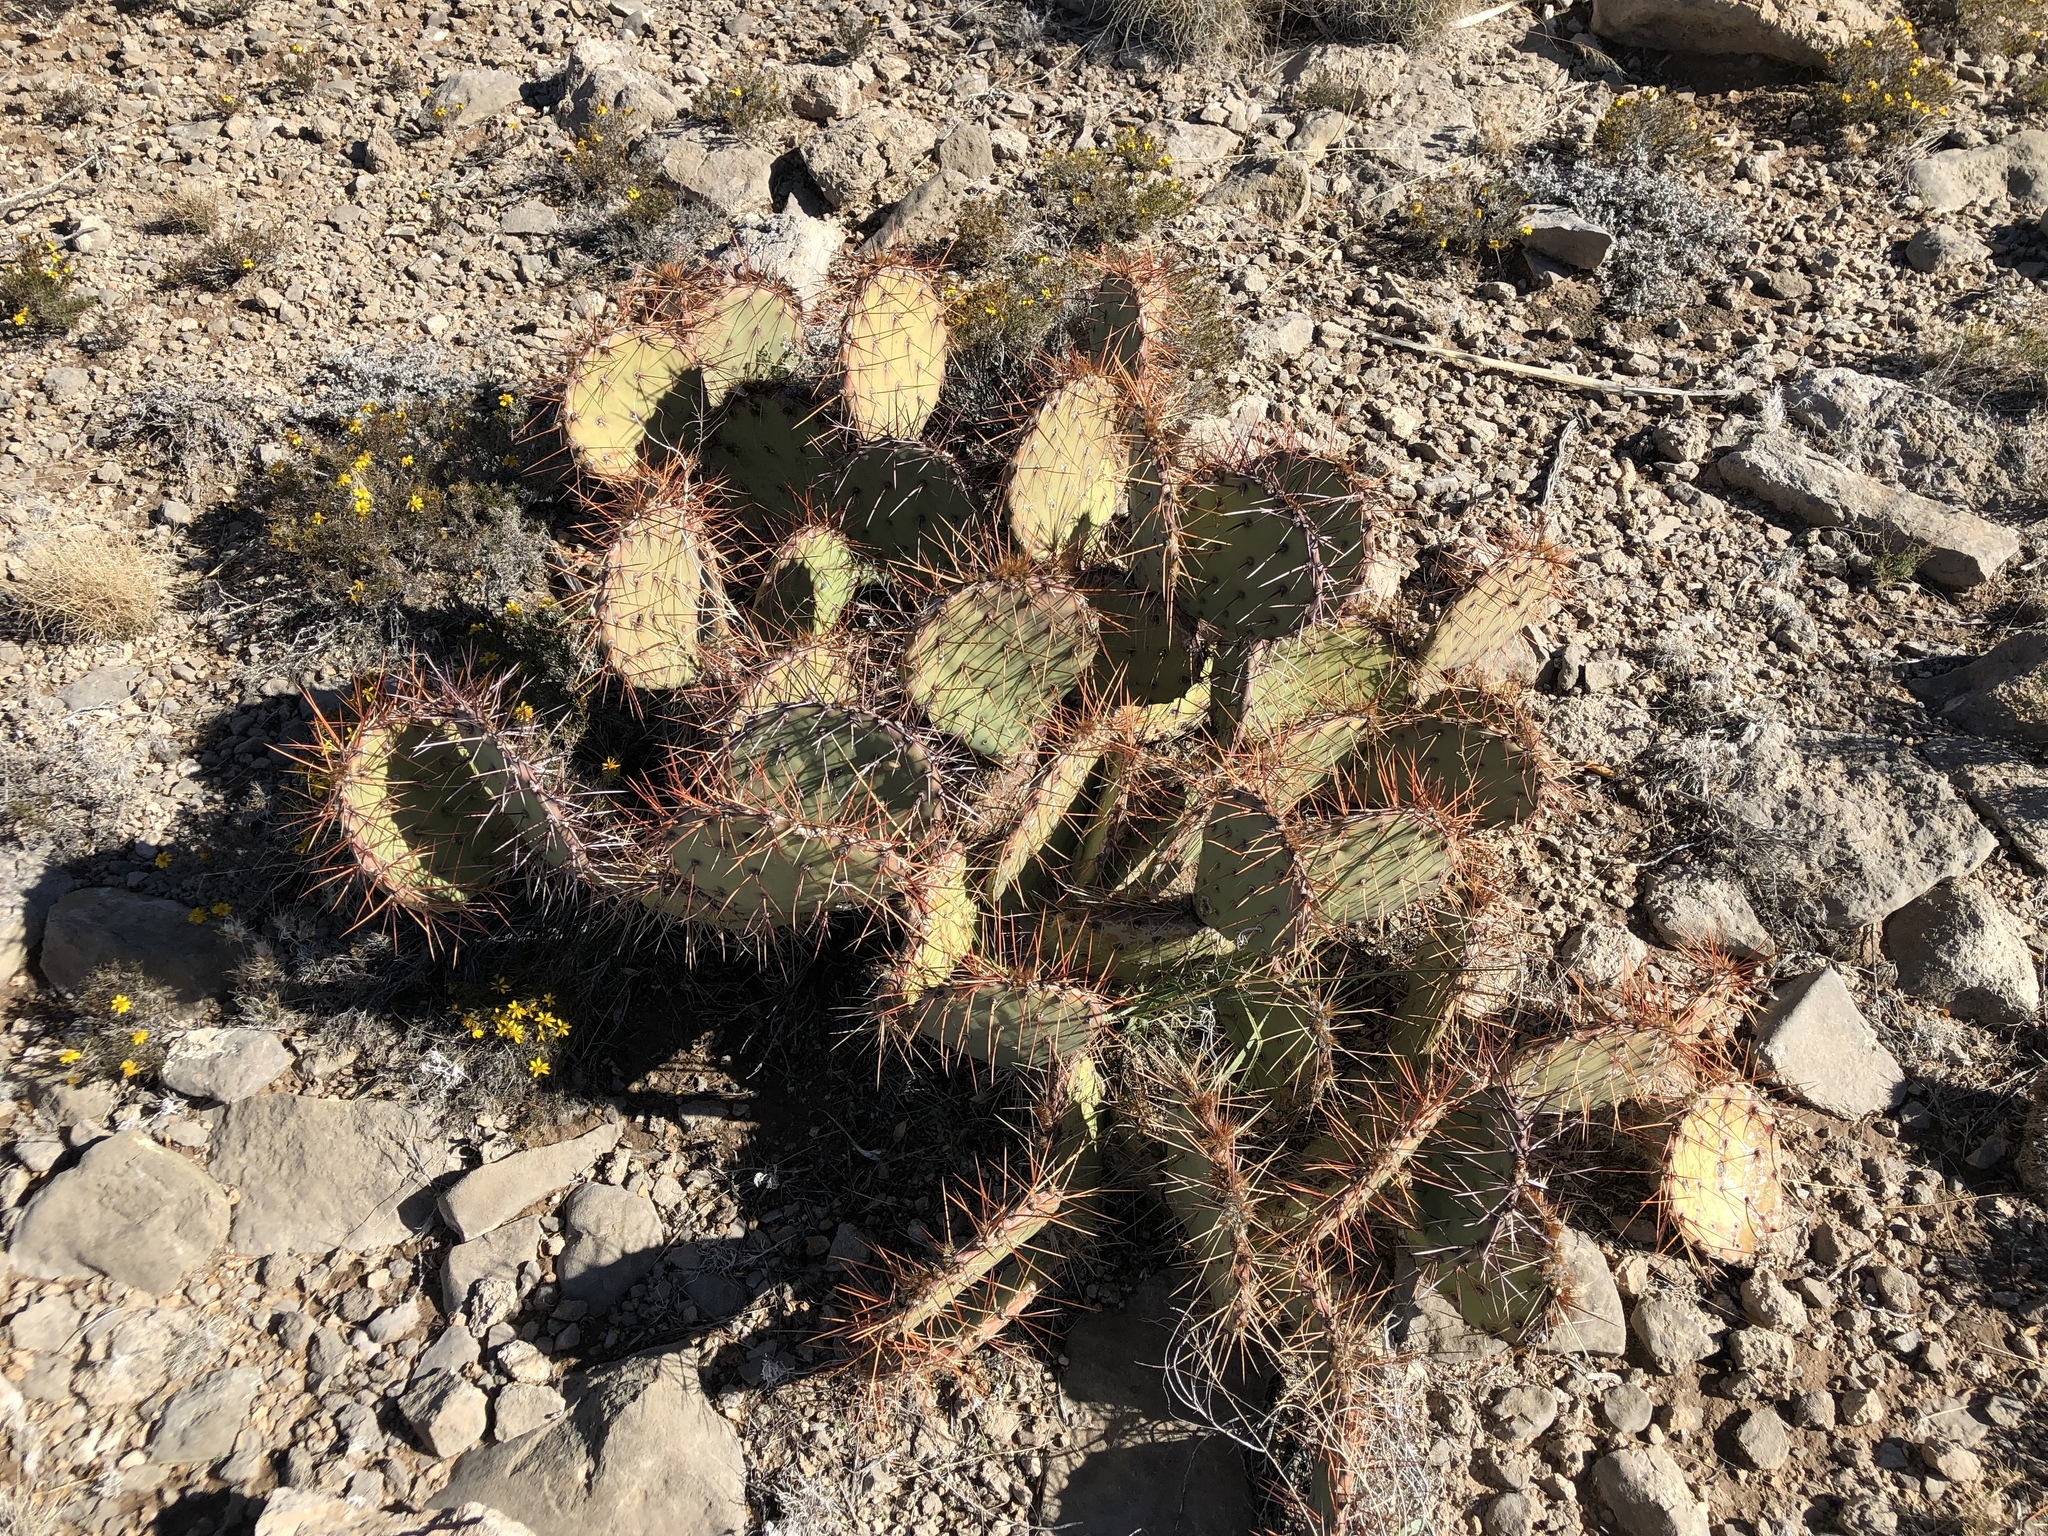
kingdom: Plantae
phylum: Tracheophyta
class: Magnoliopsida
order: Caryophyllales
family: Cactaceae
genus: Opuntia
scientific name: Opuntia phaeacantha
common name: New mexico prickly-pear
